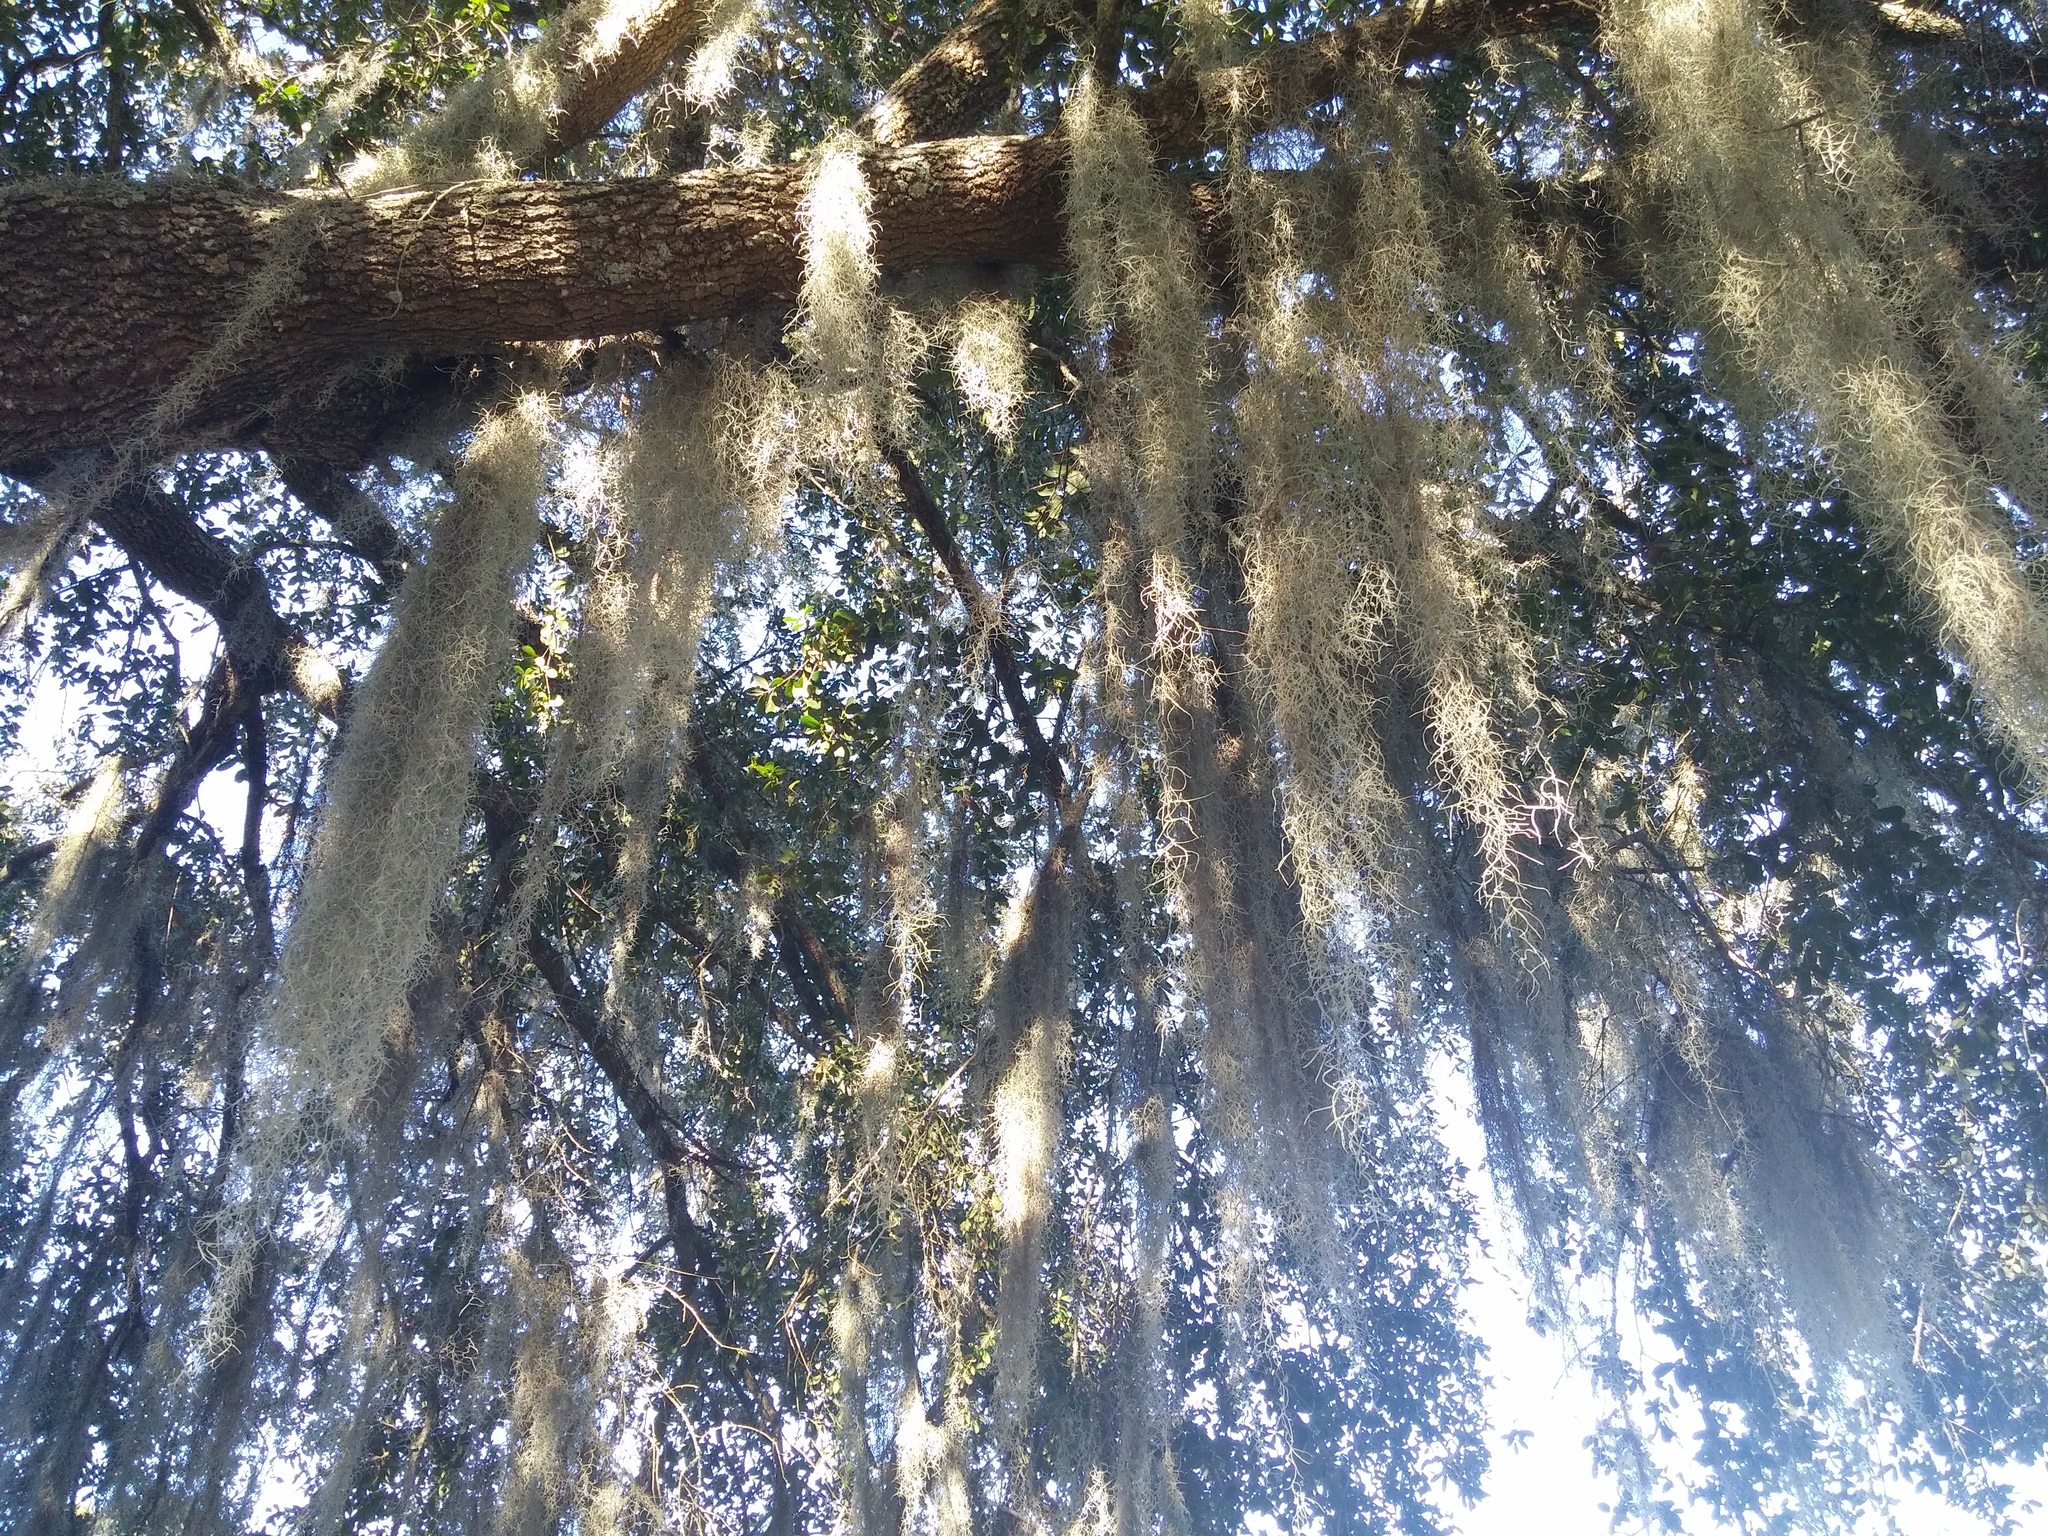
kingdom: Plantae
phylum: Tracheophyta
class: Liliopsida
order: Poales
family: Bromeliaceae
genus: Tillandsia
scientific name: Tillandsia usneoides
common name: Spanish moss
